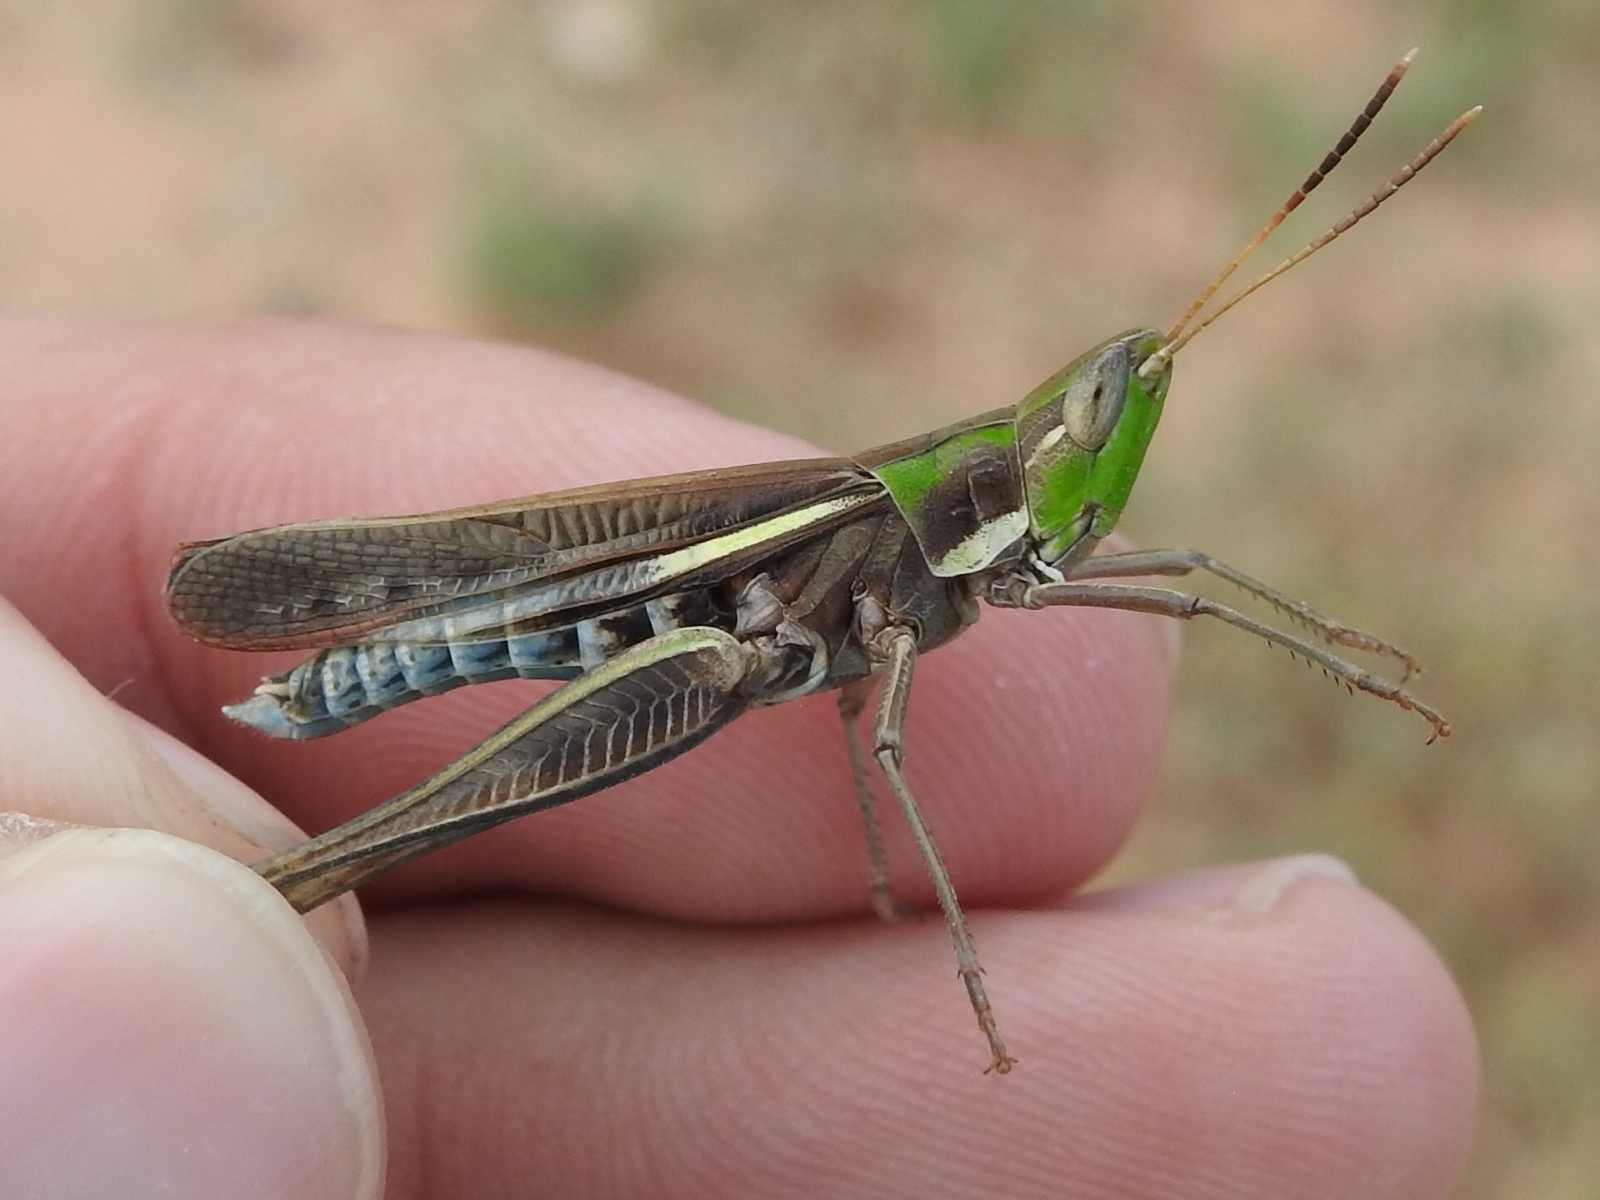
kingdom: Animalia
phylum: Arthropoda
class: Insecta
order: Orthoptera
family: Acrididae
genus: Syrbula
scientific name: Syrbula montezuma
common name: Montezuma's grasshopper
